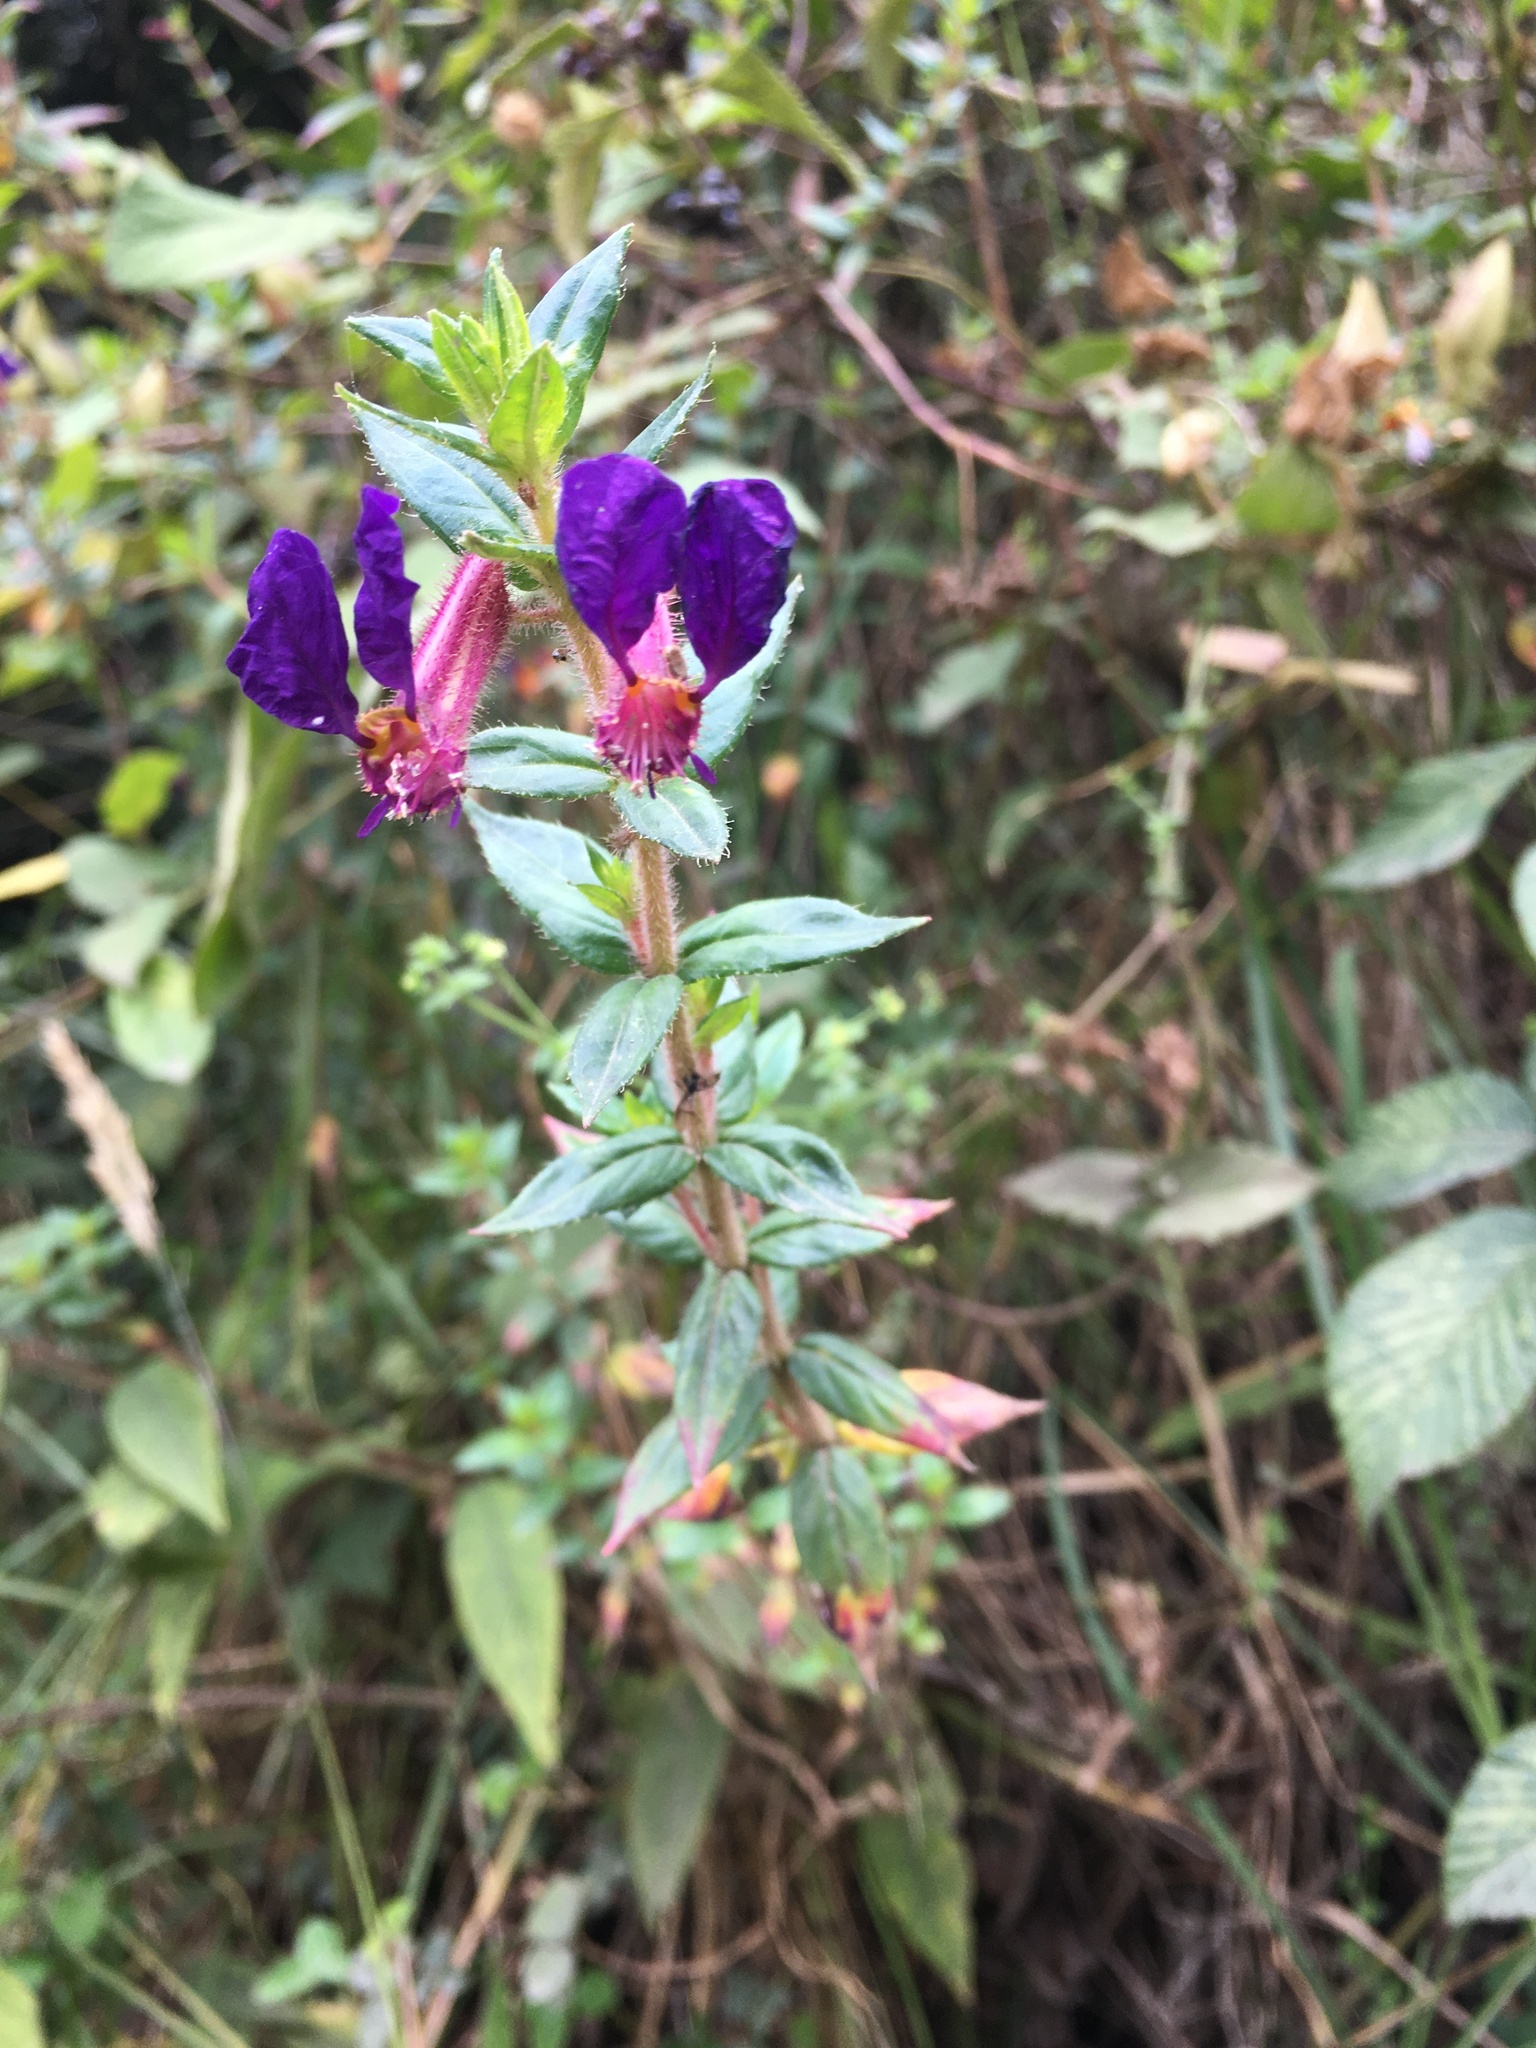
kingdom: Plantae
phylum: Tracheophyta
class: Magnoliopsida
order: Myrtales
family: Lythraceae
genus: Cuphea
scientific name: Cuphea dipetala
